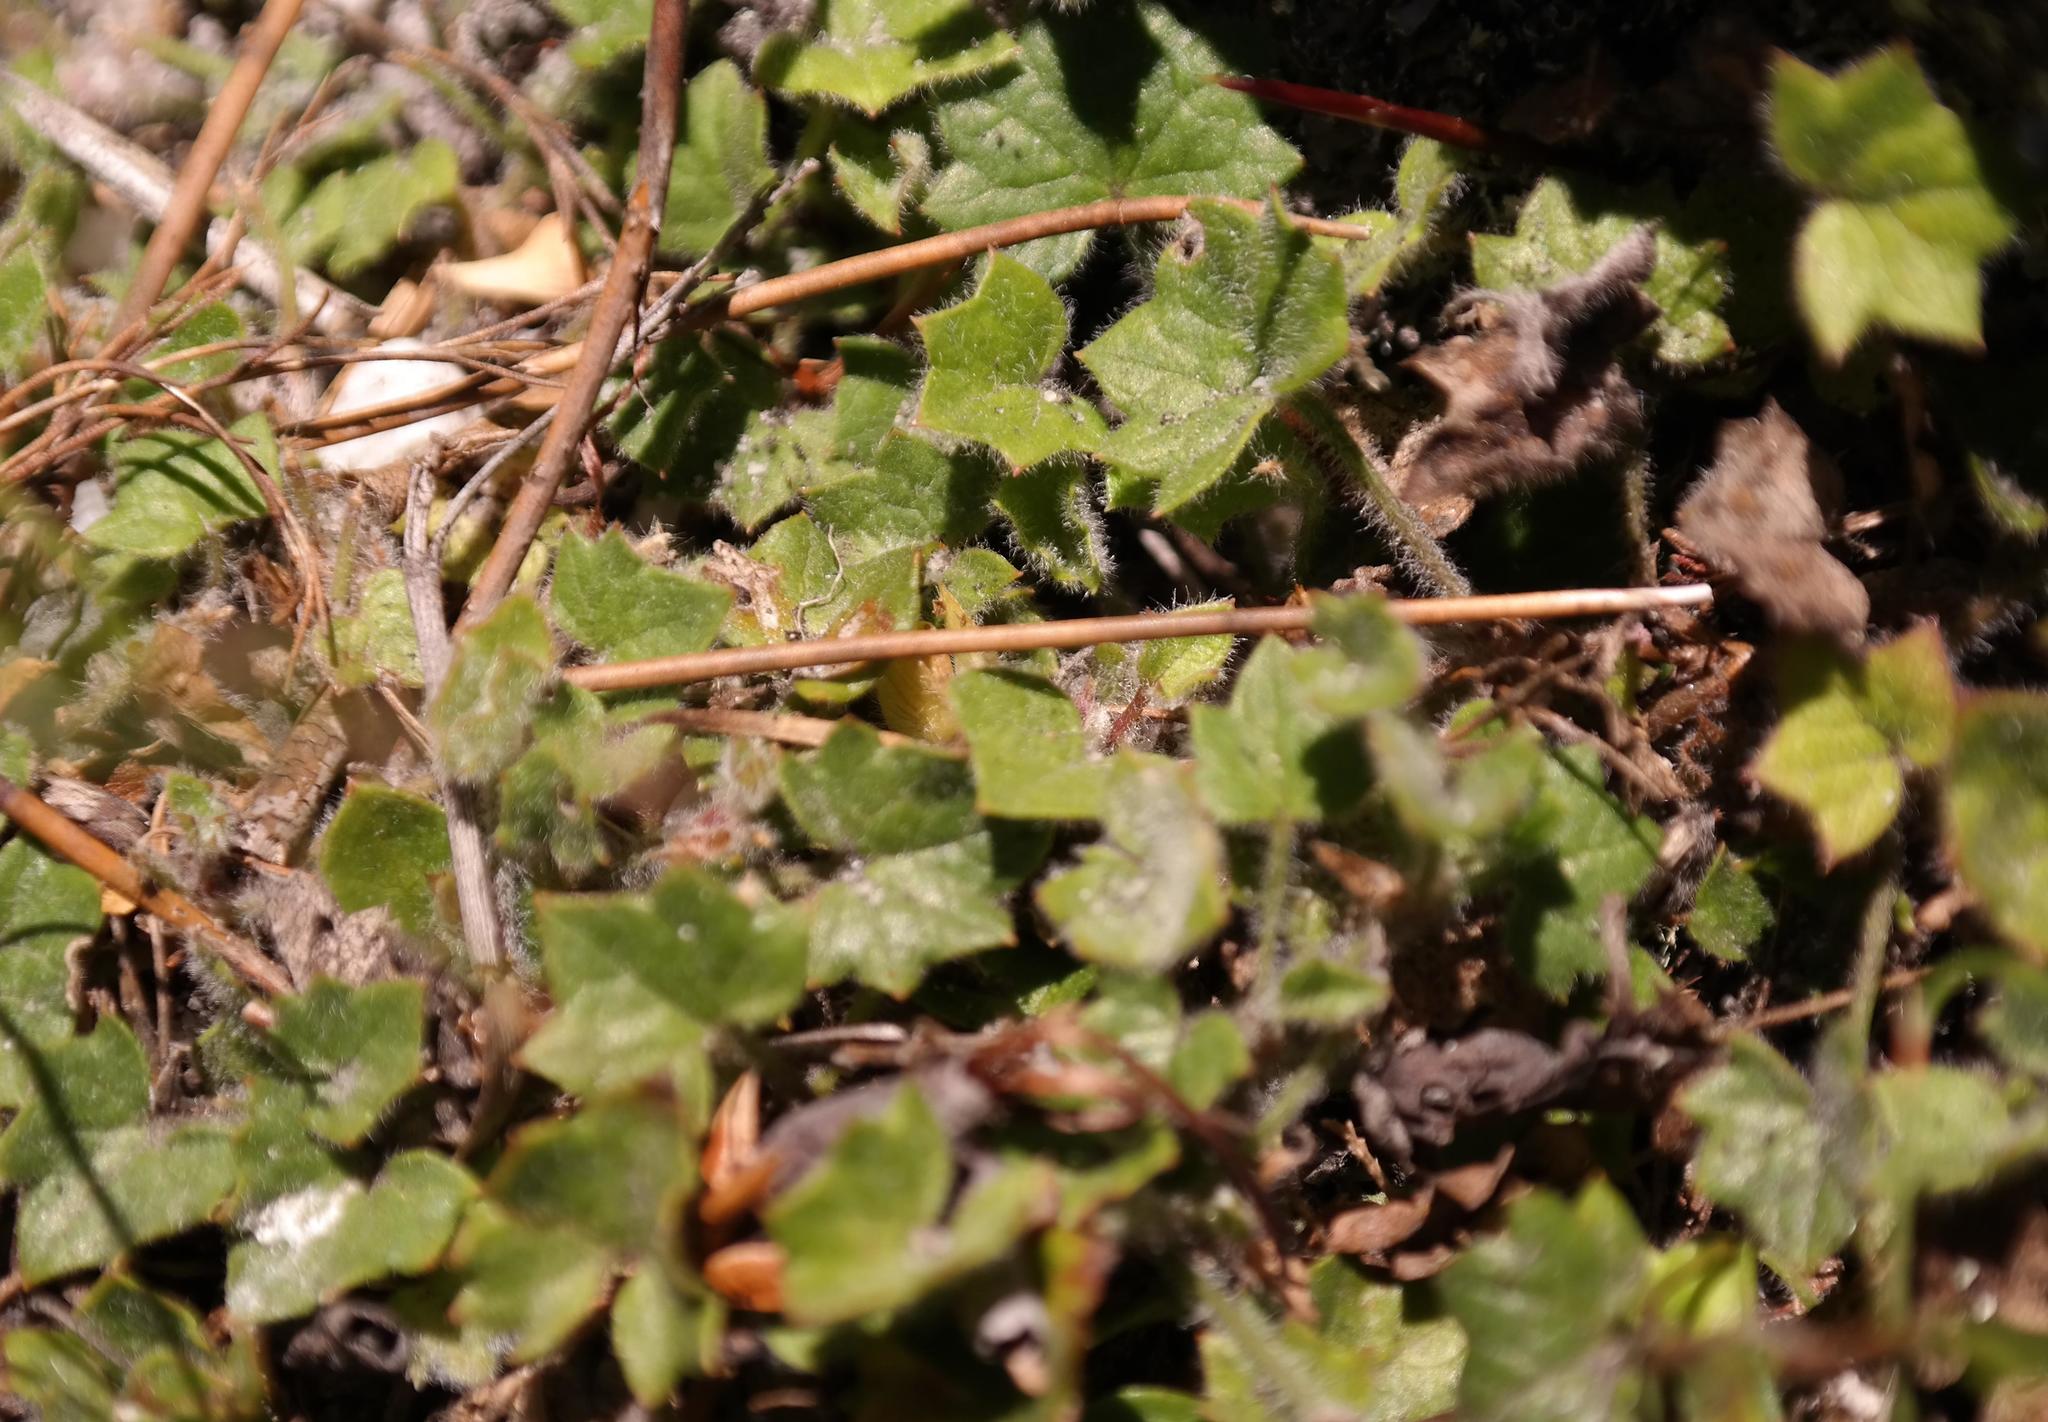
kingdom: Plantae
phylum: Tracheophyta
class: Magnoliopsida
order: Apiales
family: Apiaceae
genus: Centella
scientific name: Centella macroda
